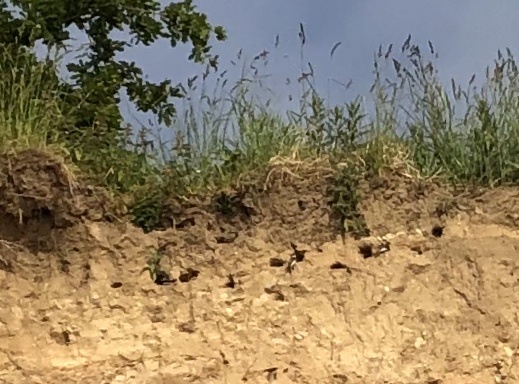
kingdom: Animalia
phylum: Chordata
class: Aves
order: Passeriformes
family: Hirundinidae
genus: Riparia
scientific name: Riparia riparia
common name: Sand martin
